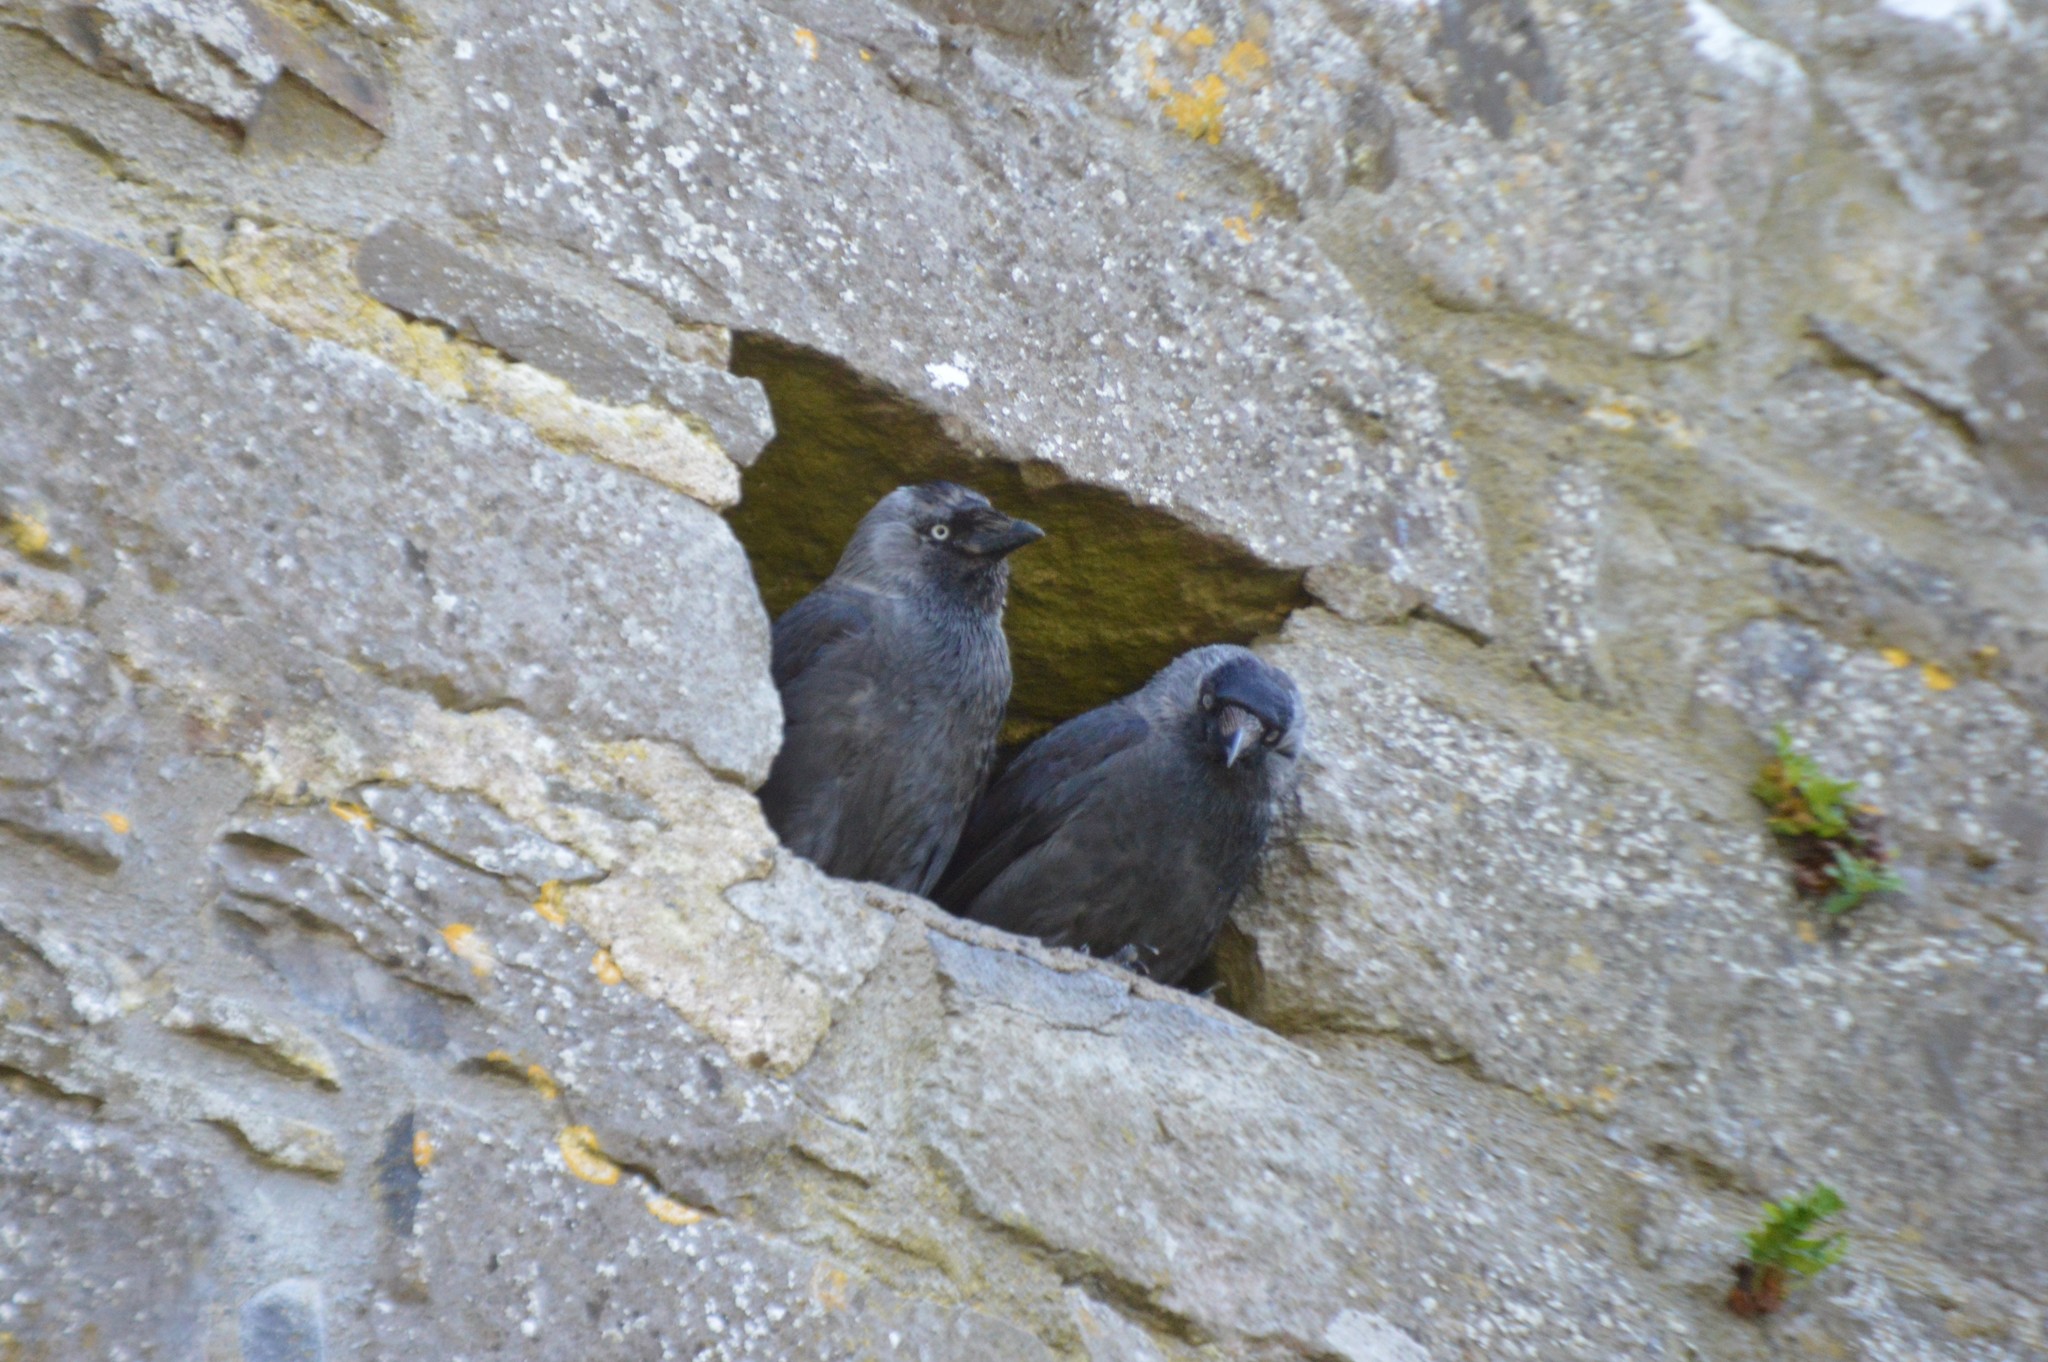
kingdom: Animalia
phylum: Chordata
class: Aves
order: Passeriformes
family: Corvidae
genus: Coloeus
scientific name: Coloeus monedula
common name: Western jackdaw
